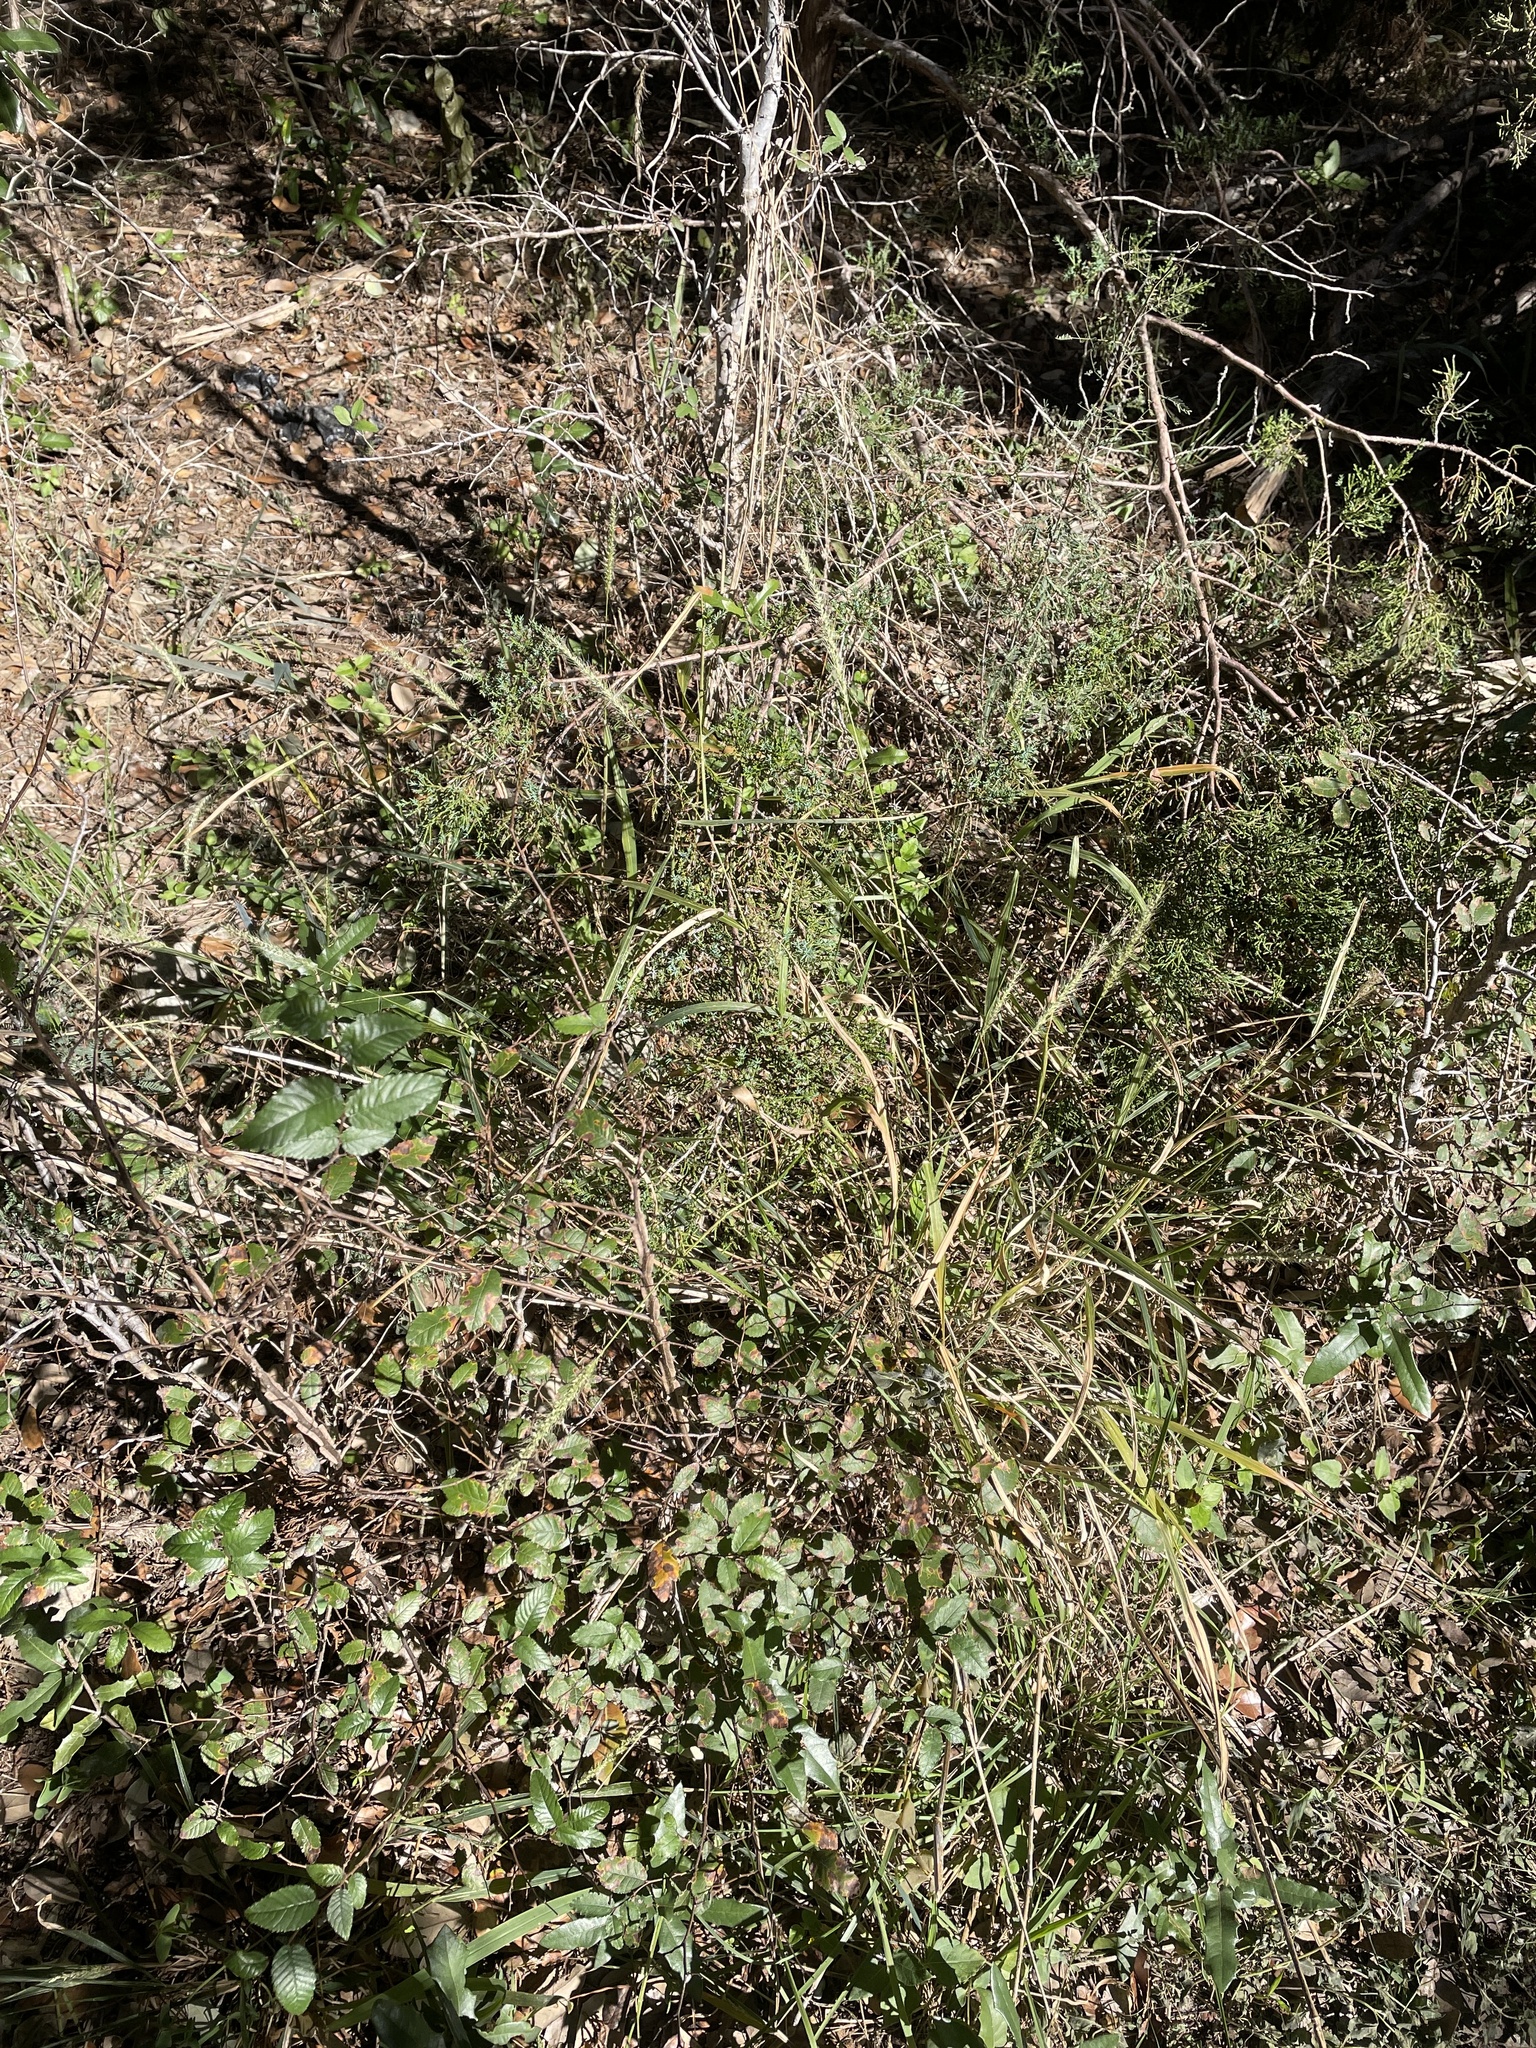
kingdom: Plantae
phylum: Tracheophyta
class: Liliopsida
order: Poales
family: Poaceae
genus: Setaria
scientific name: Setaria scheelei
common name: Southwestern bristle grass
